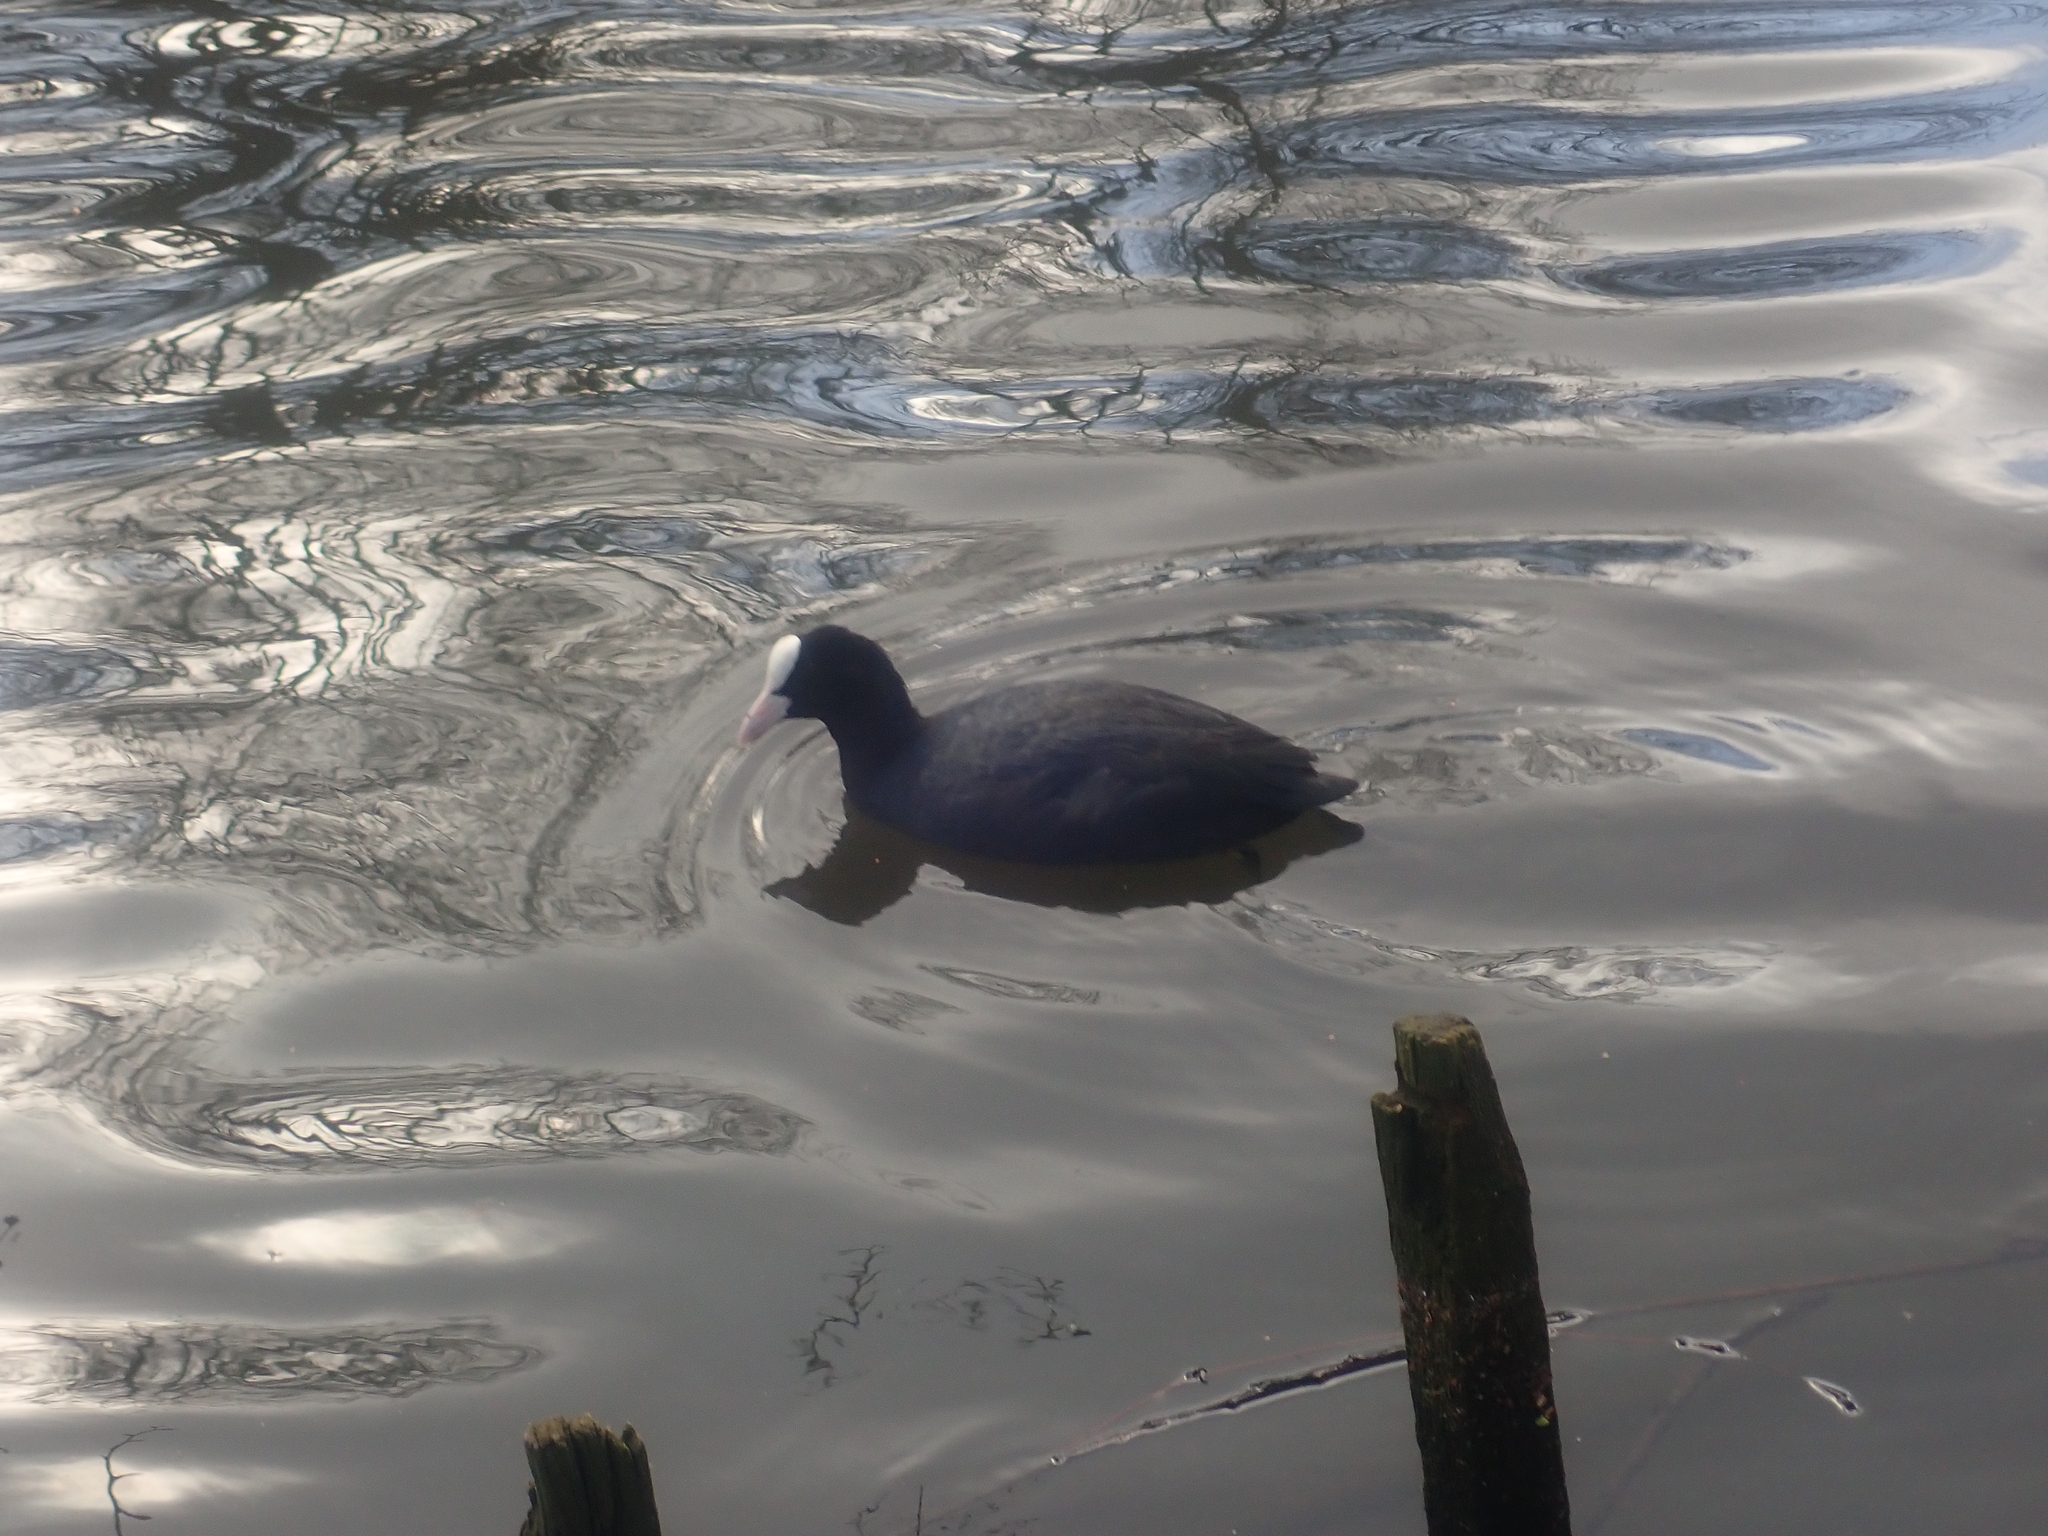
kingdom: Animalia
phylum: Chordata
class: Aves
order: Gruiformes
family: Rallidae
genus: Fulica
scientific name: Fulica atra
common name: Eurasian coot
